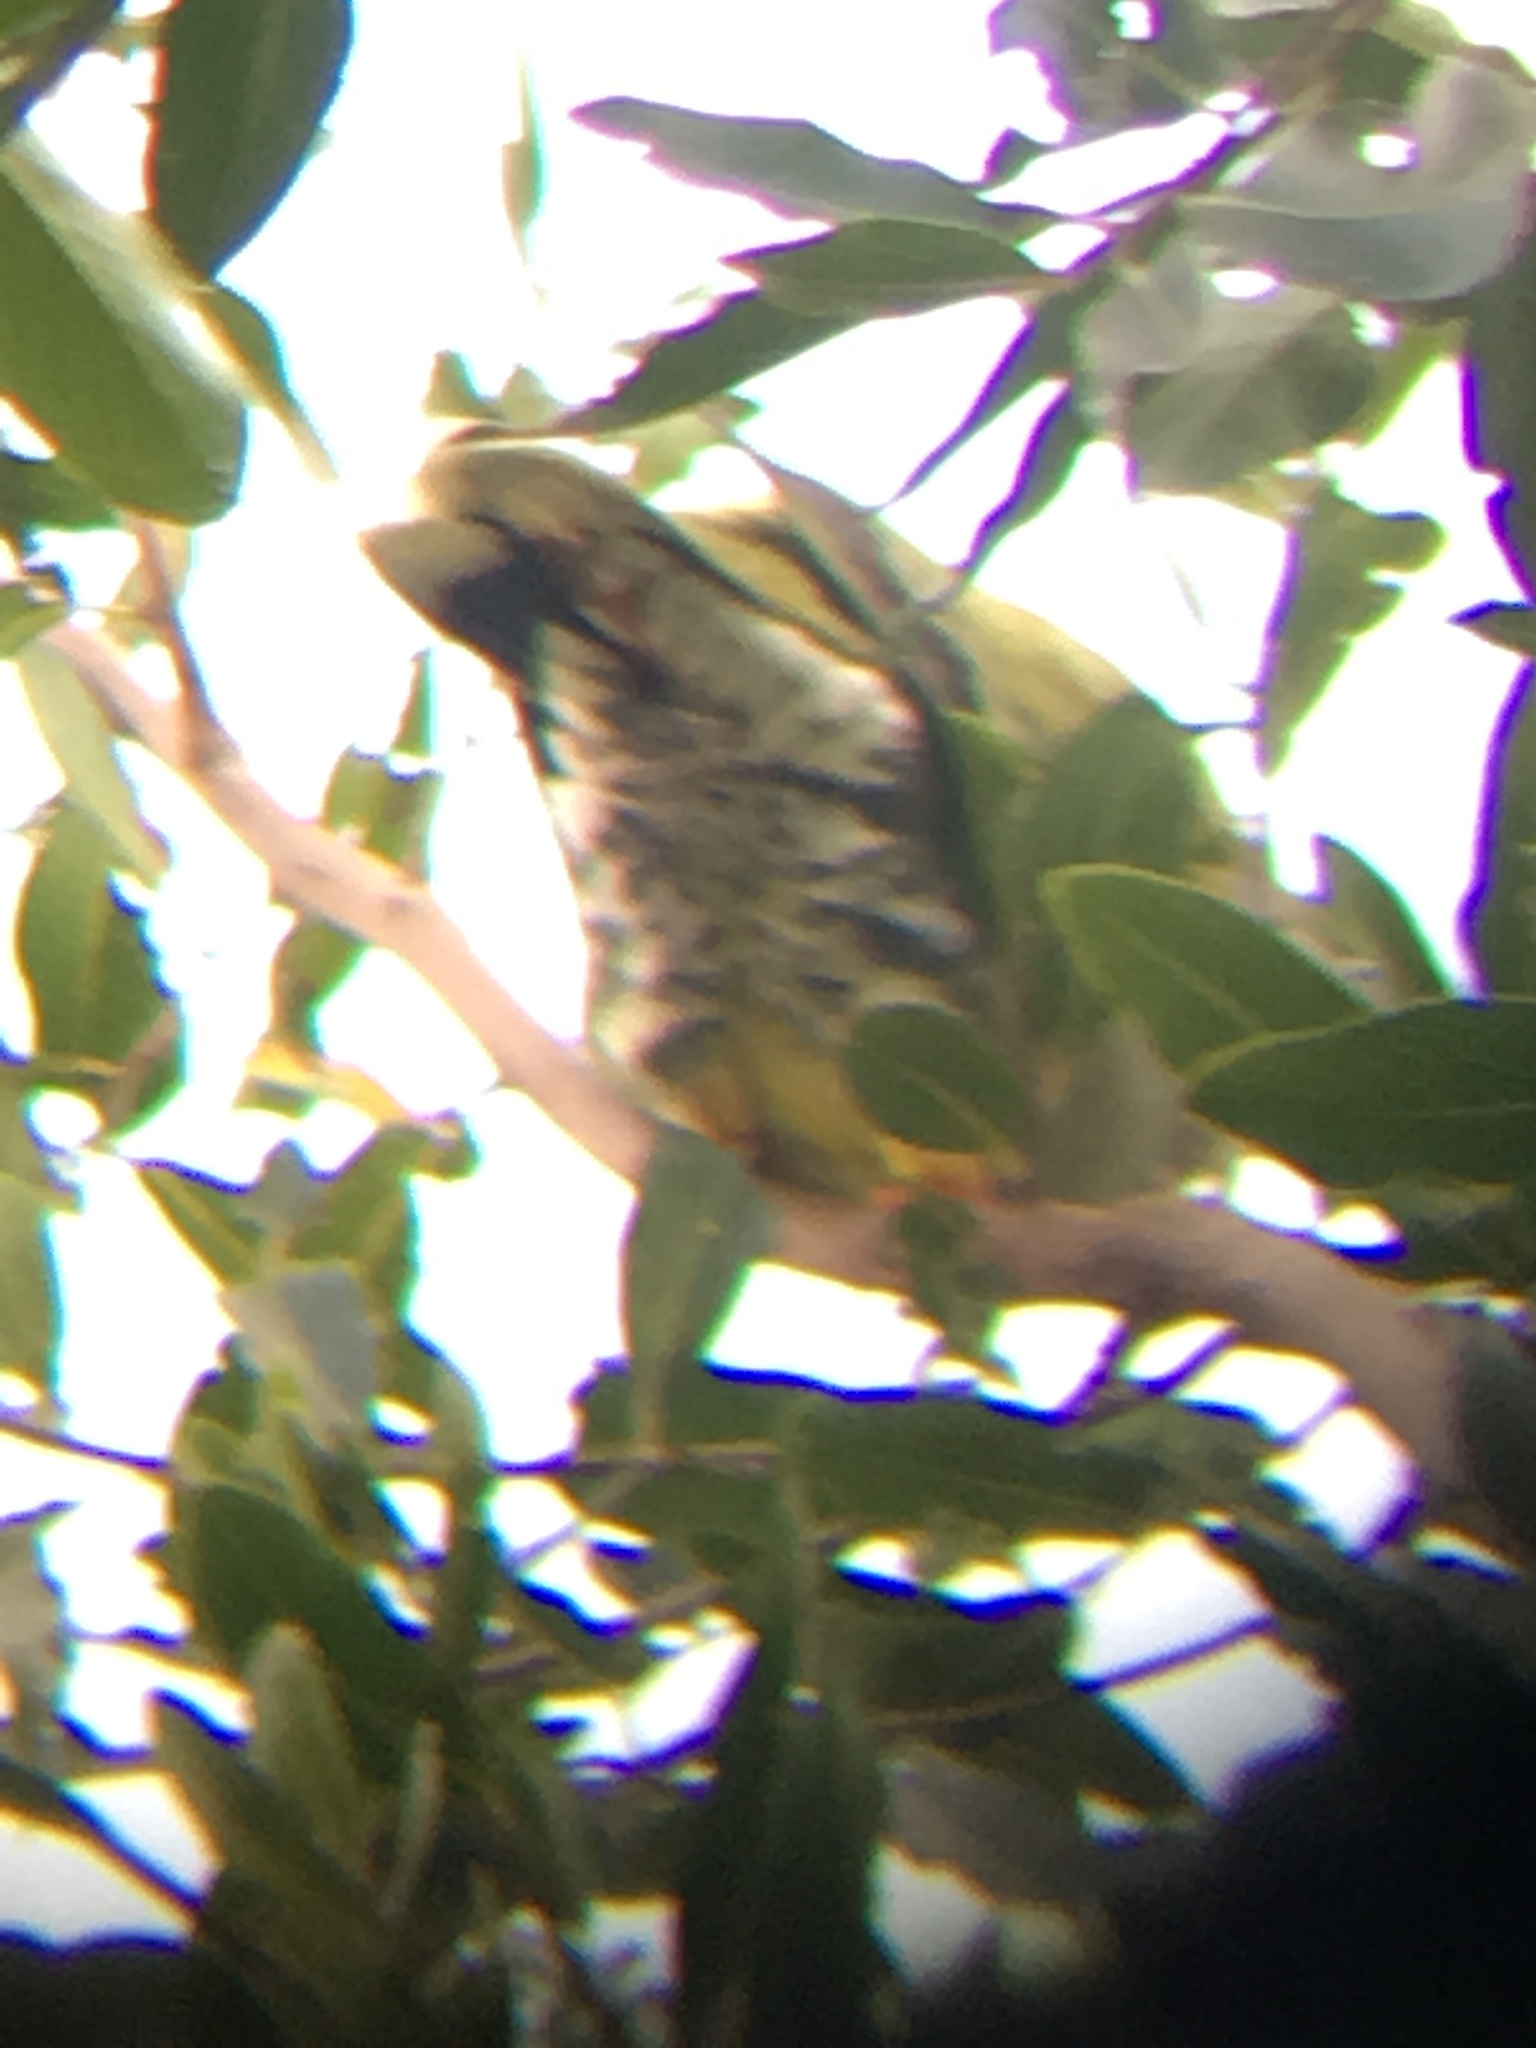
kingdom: Animalia
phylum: Chordata
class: Aves
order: Columbiformes
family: Columbidae
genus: Treron
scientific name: Treron calvus
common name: African green pigeon
